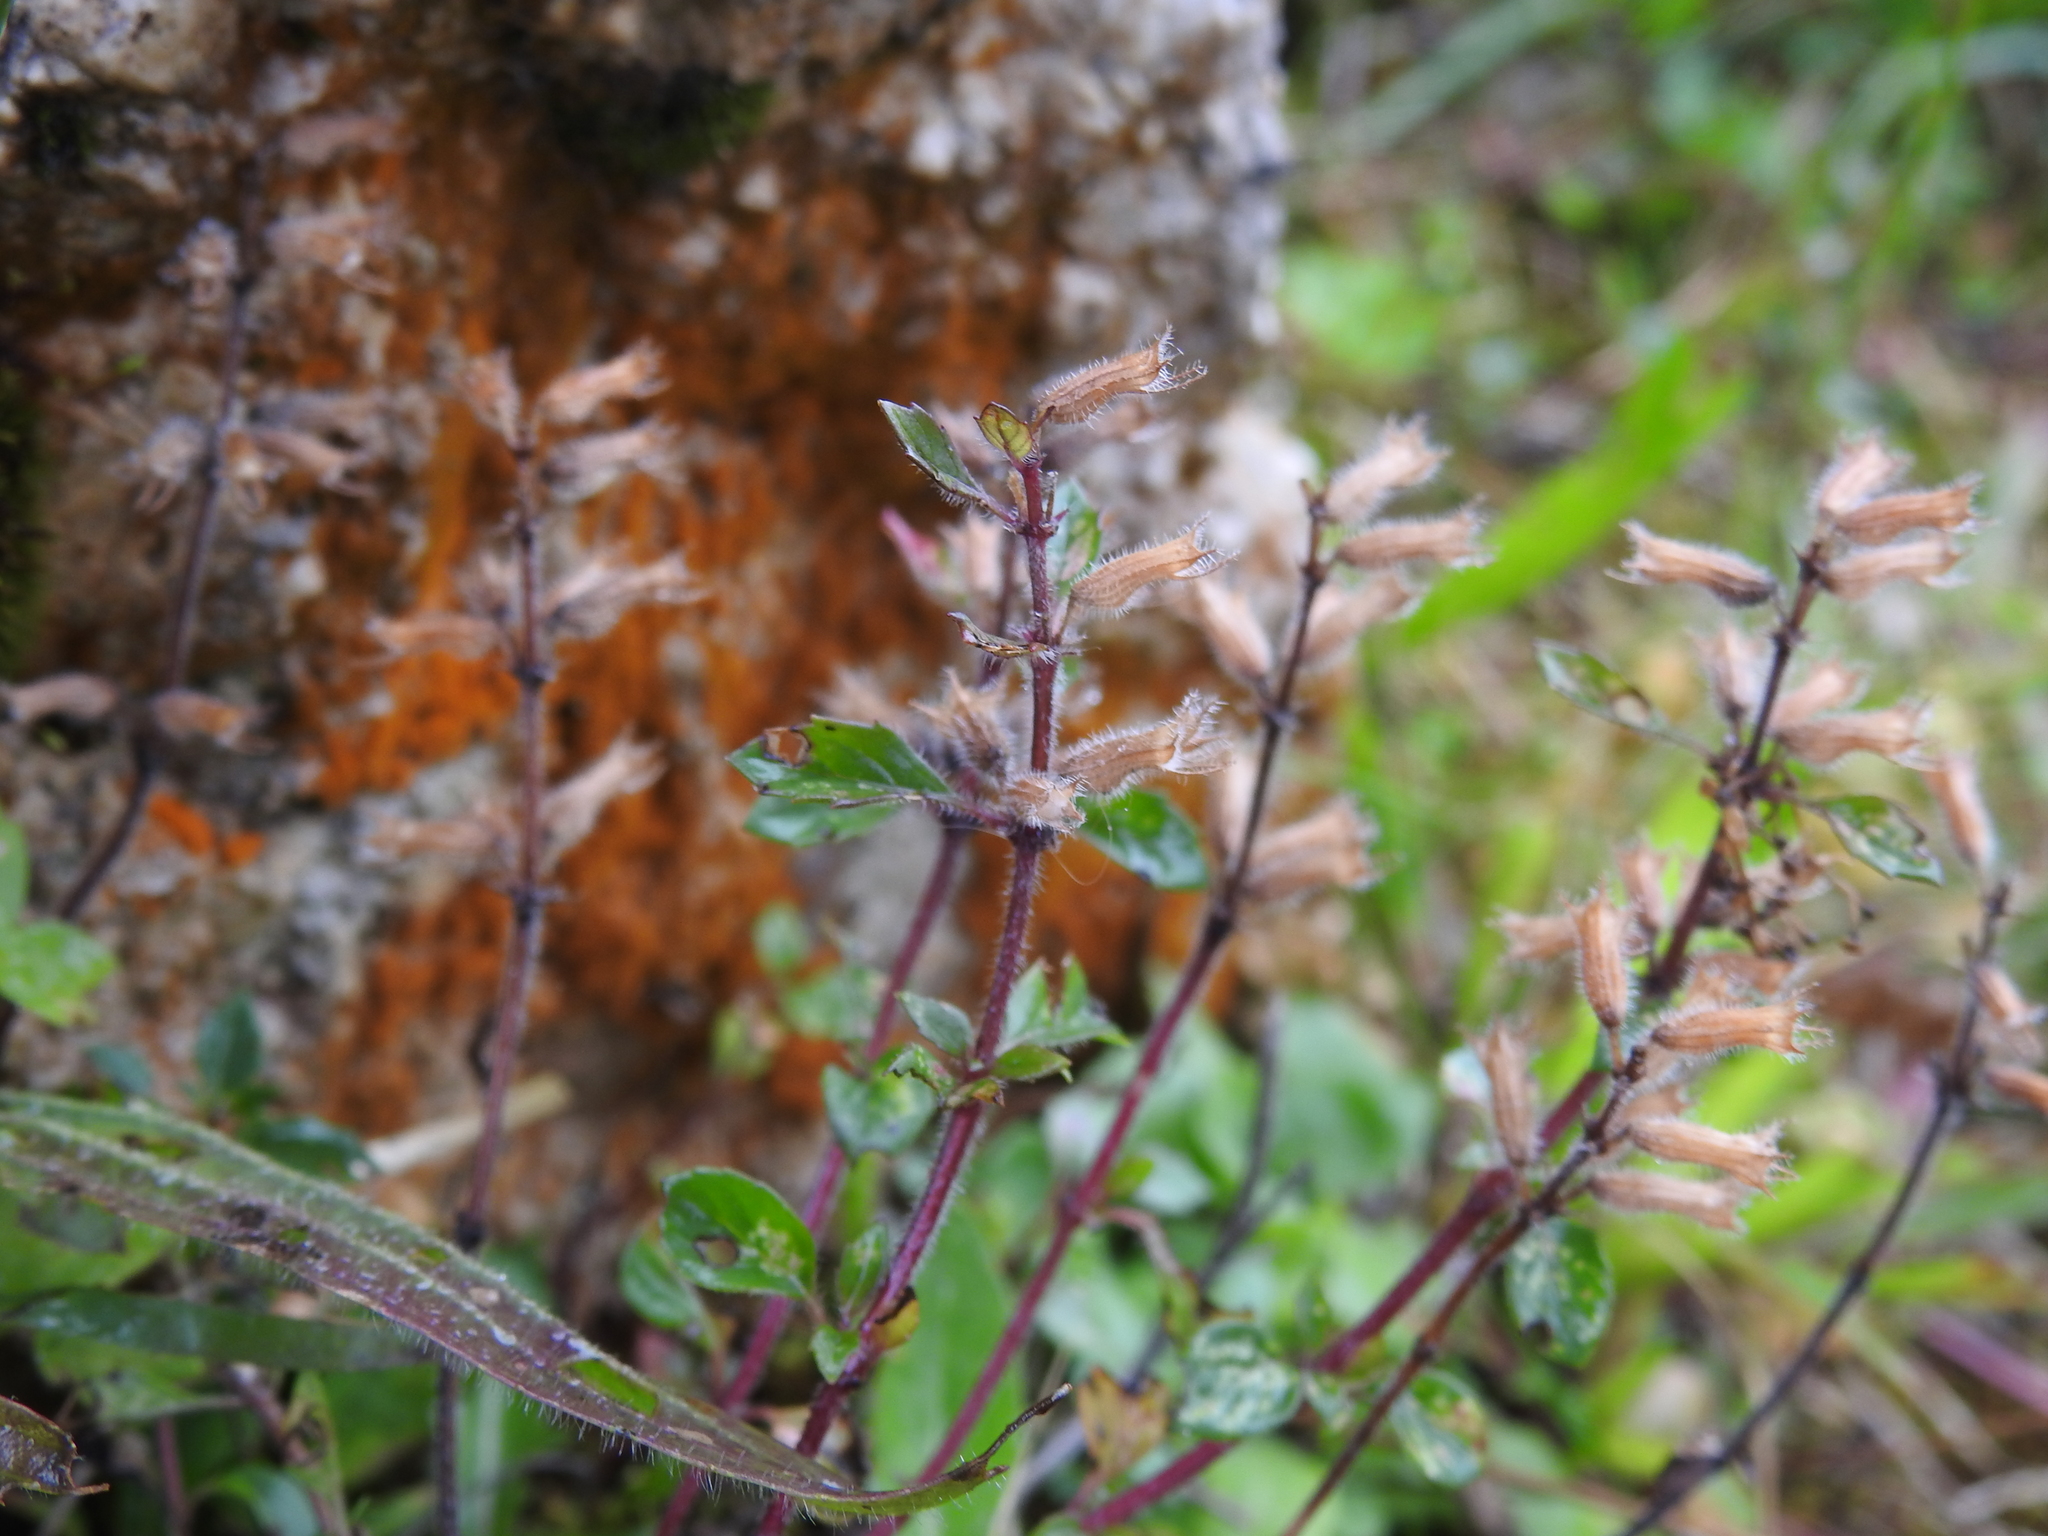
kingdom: Plantae
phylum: Tracheophyta
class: Magnoliopsida
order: Lamiales
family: Lamiaceae
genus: Clinopodium
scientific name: Clinopodium alpinum
